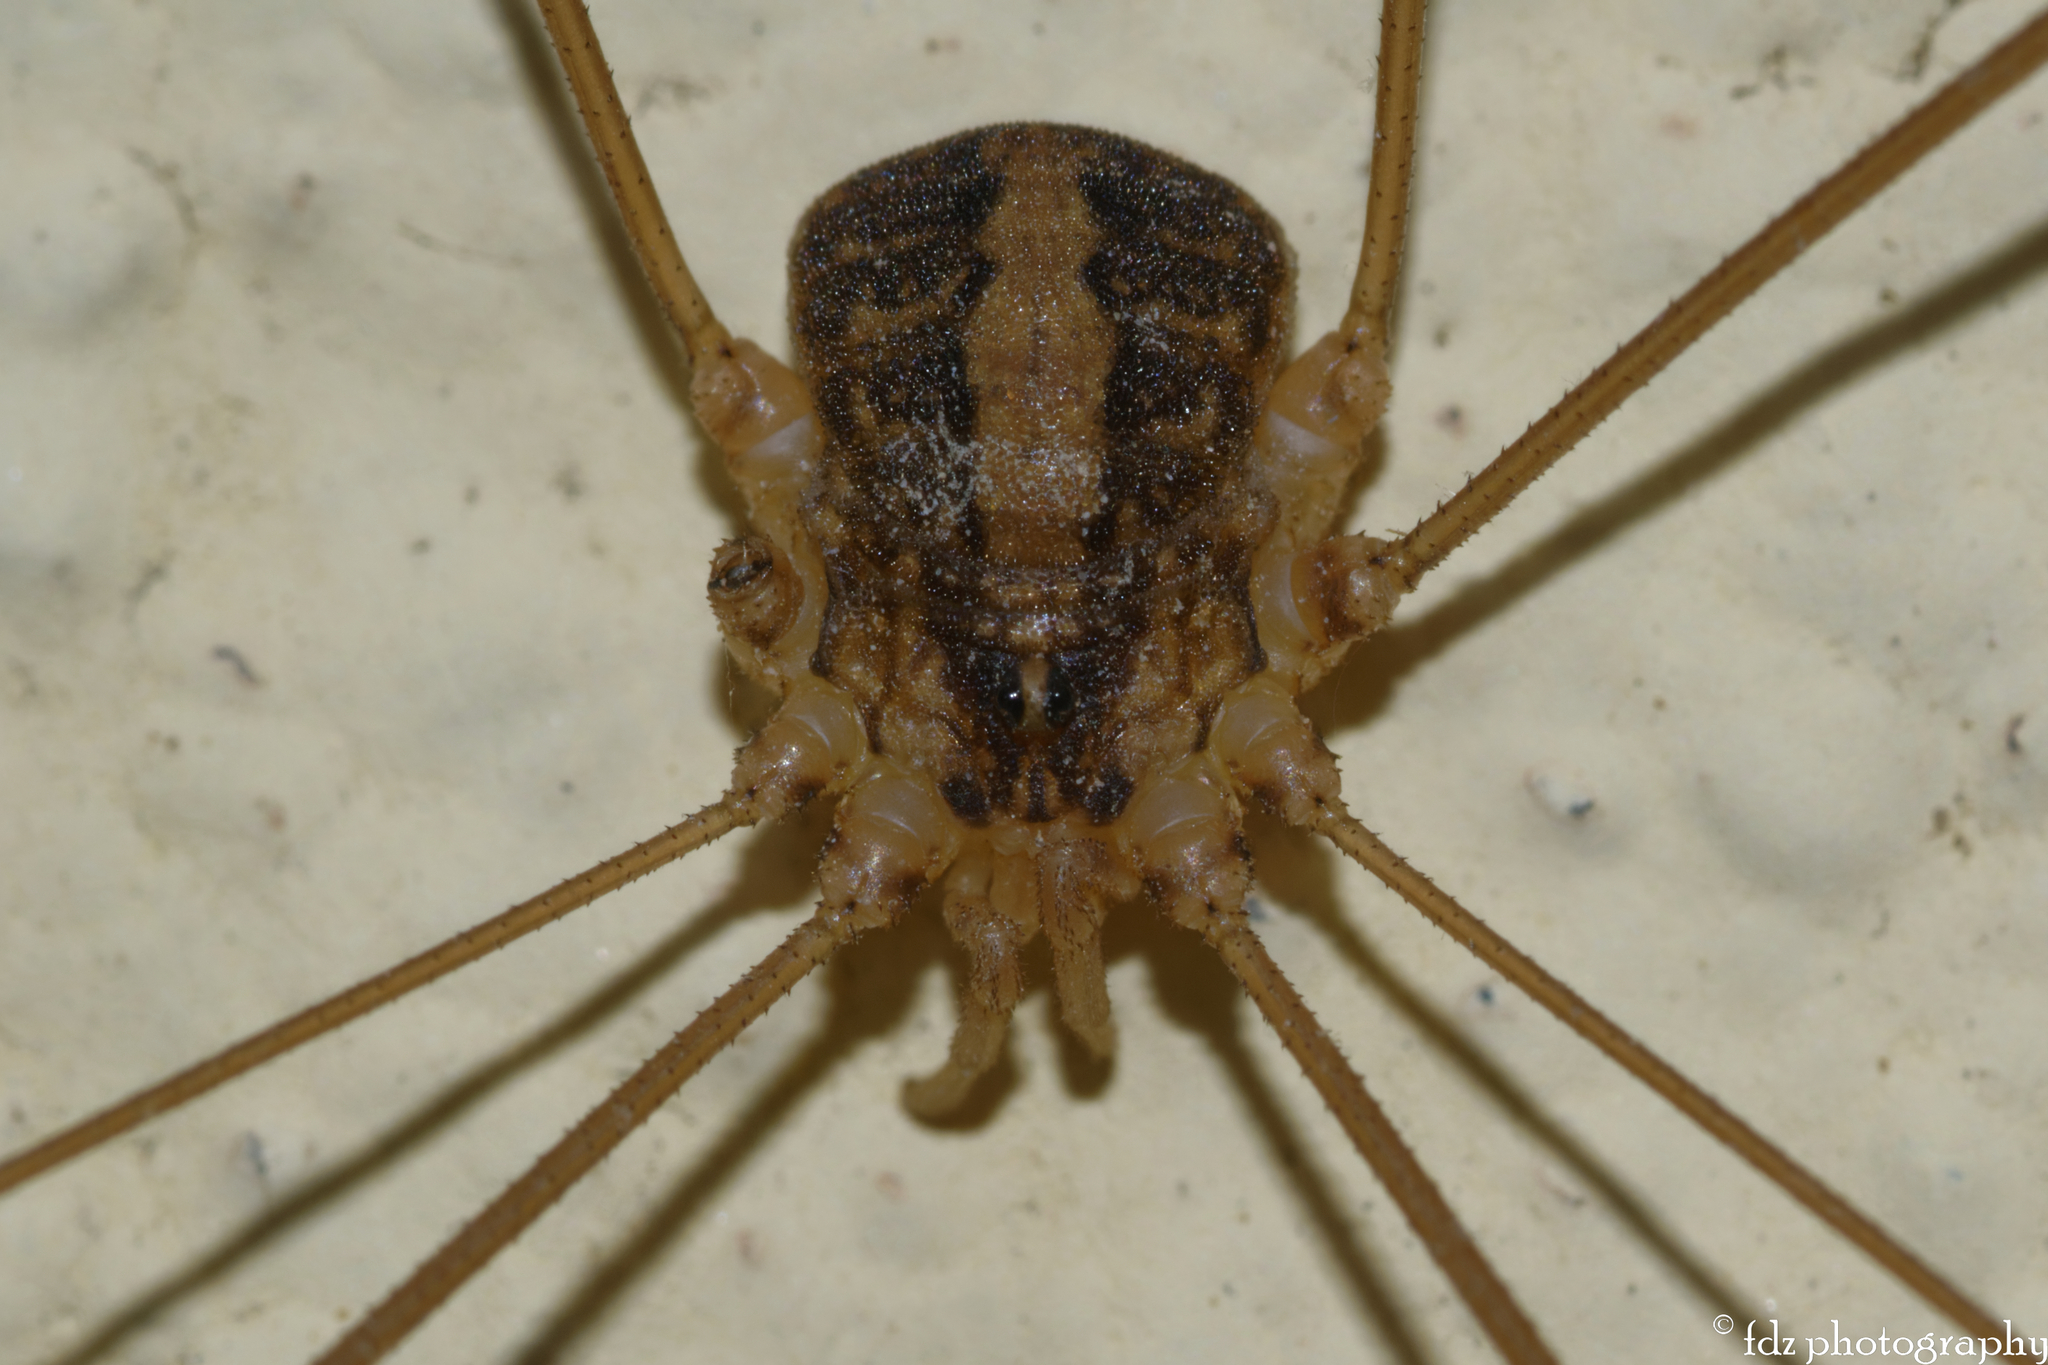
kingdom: Animalia
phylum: Arthropoda
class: Arachnida
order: Opiliones
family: Sclerosomatidae
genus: Cosmobunus
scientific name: Cosmobunus granarius
